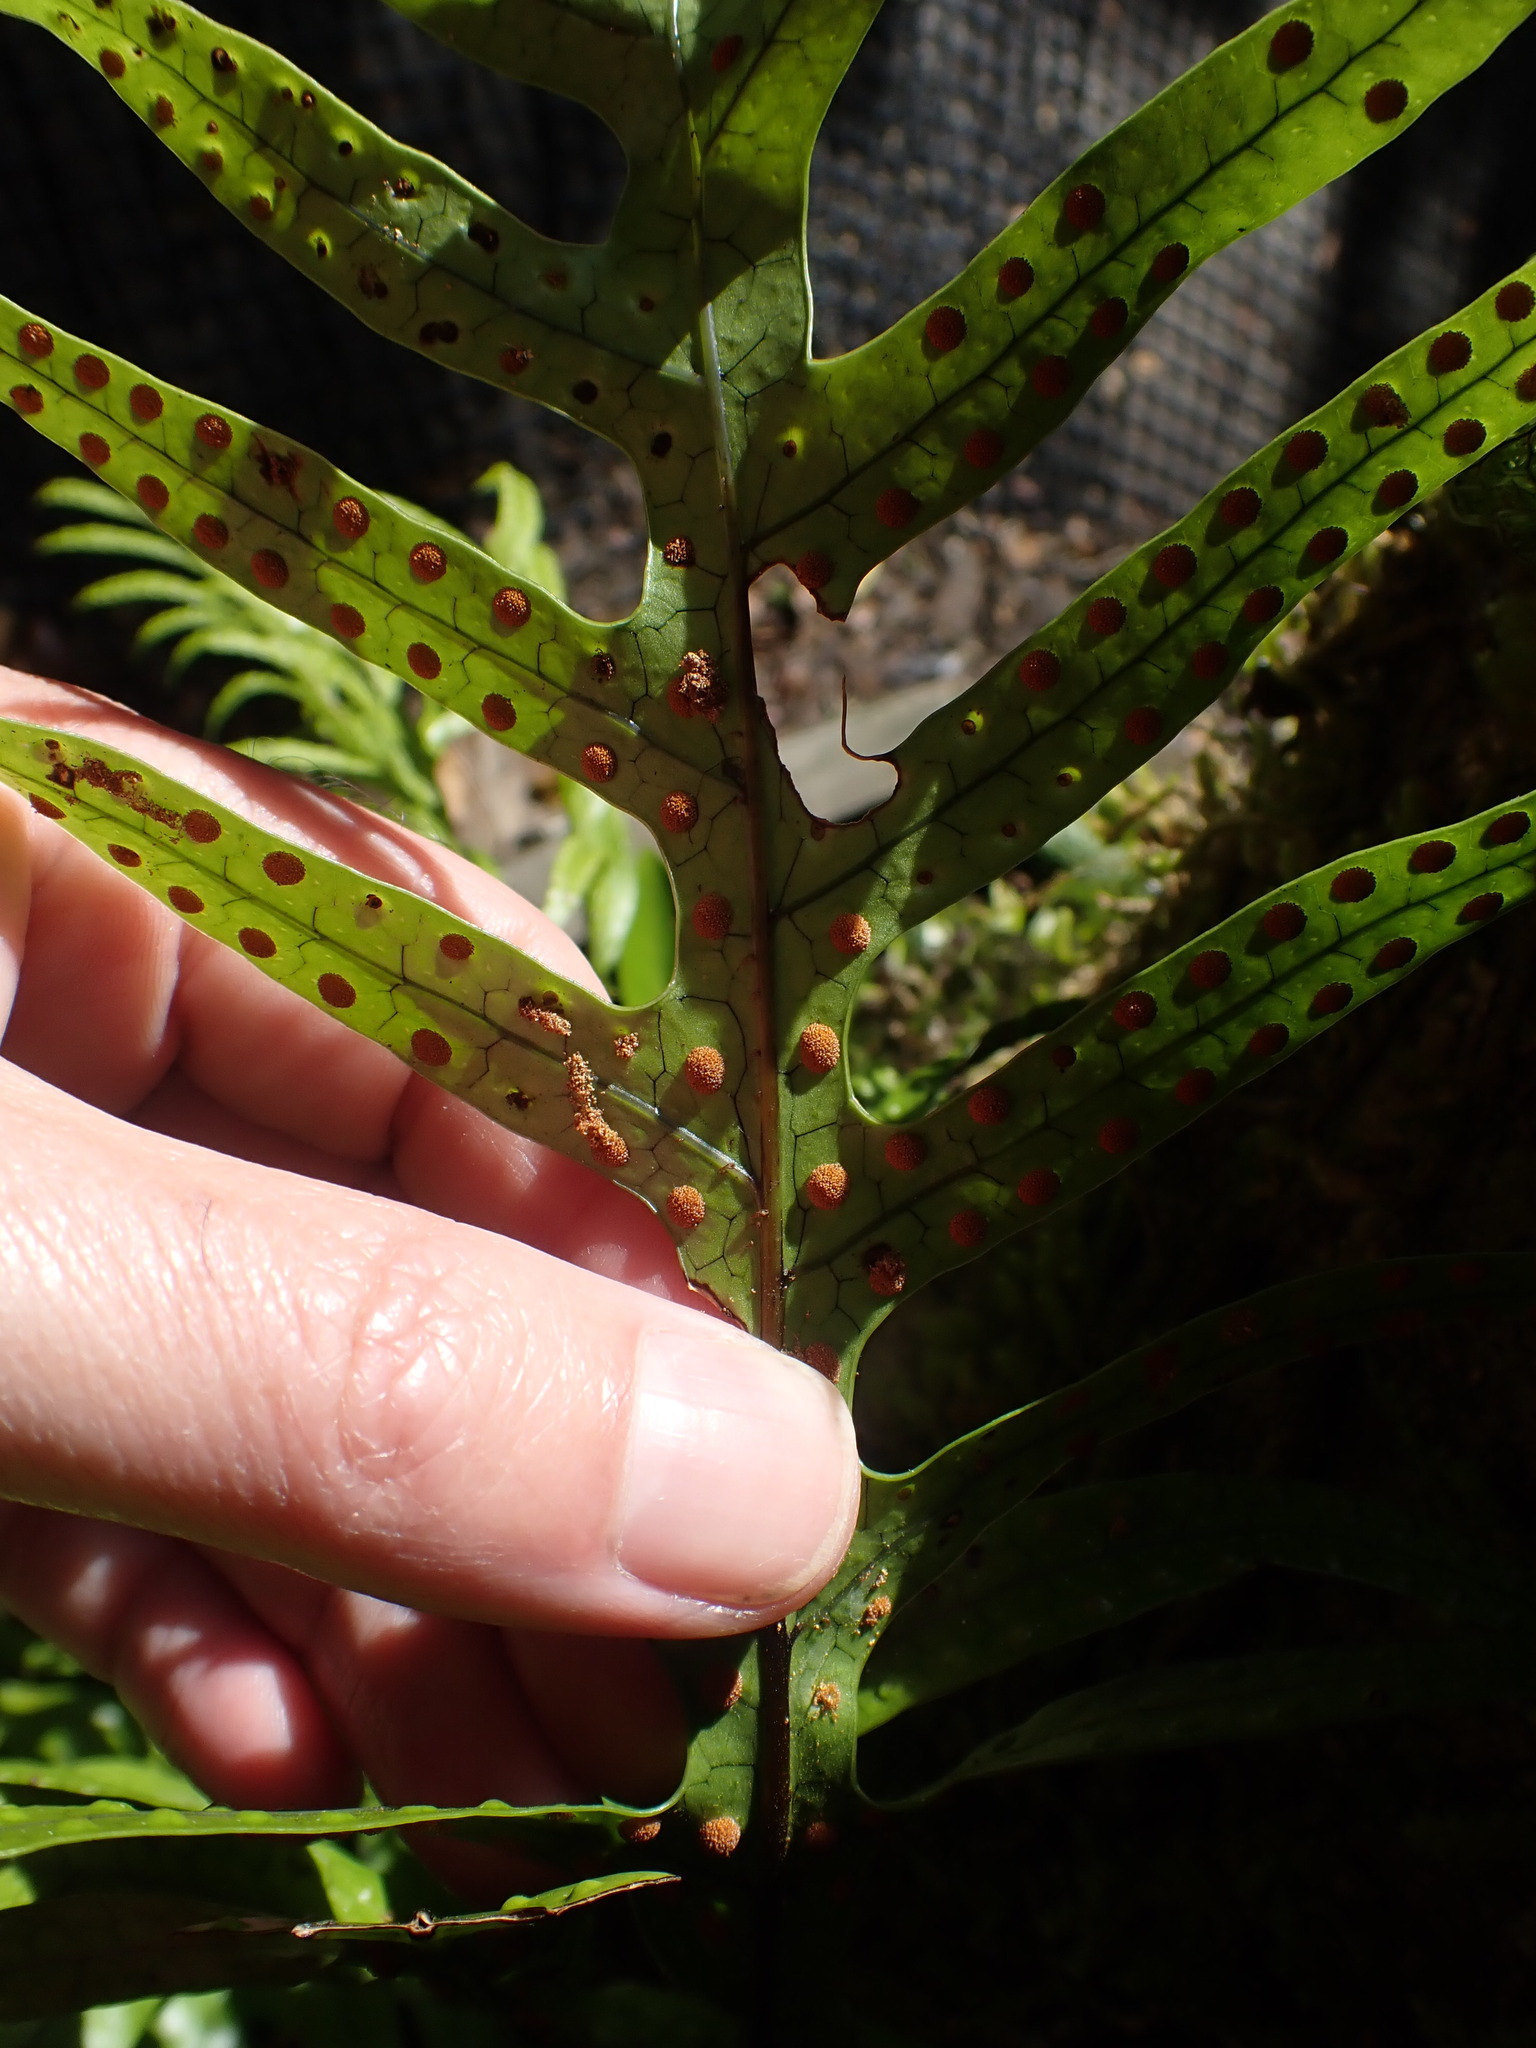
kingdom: Plantae
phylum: Tracheophyta
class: Polypodiopsida
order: Polypodiales
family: Polypodiaceae
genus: Lecanopteris
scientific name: Lecanopteris pustulata
